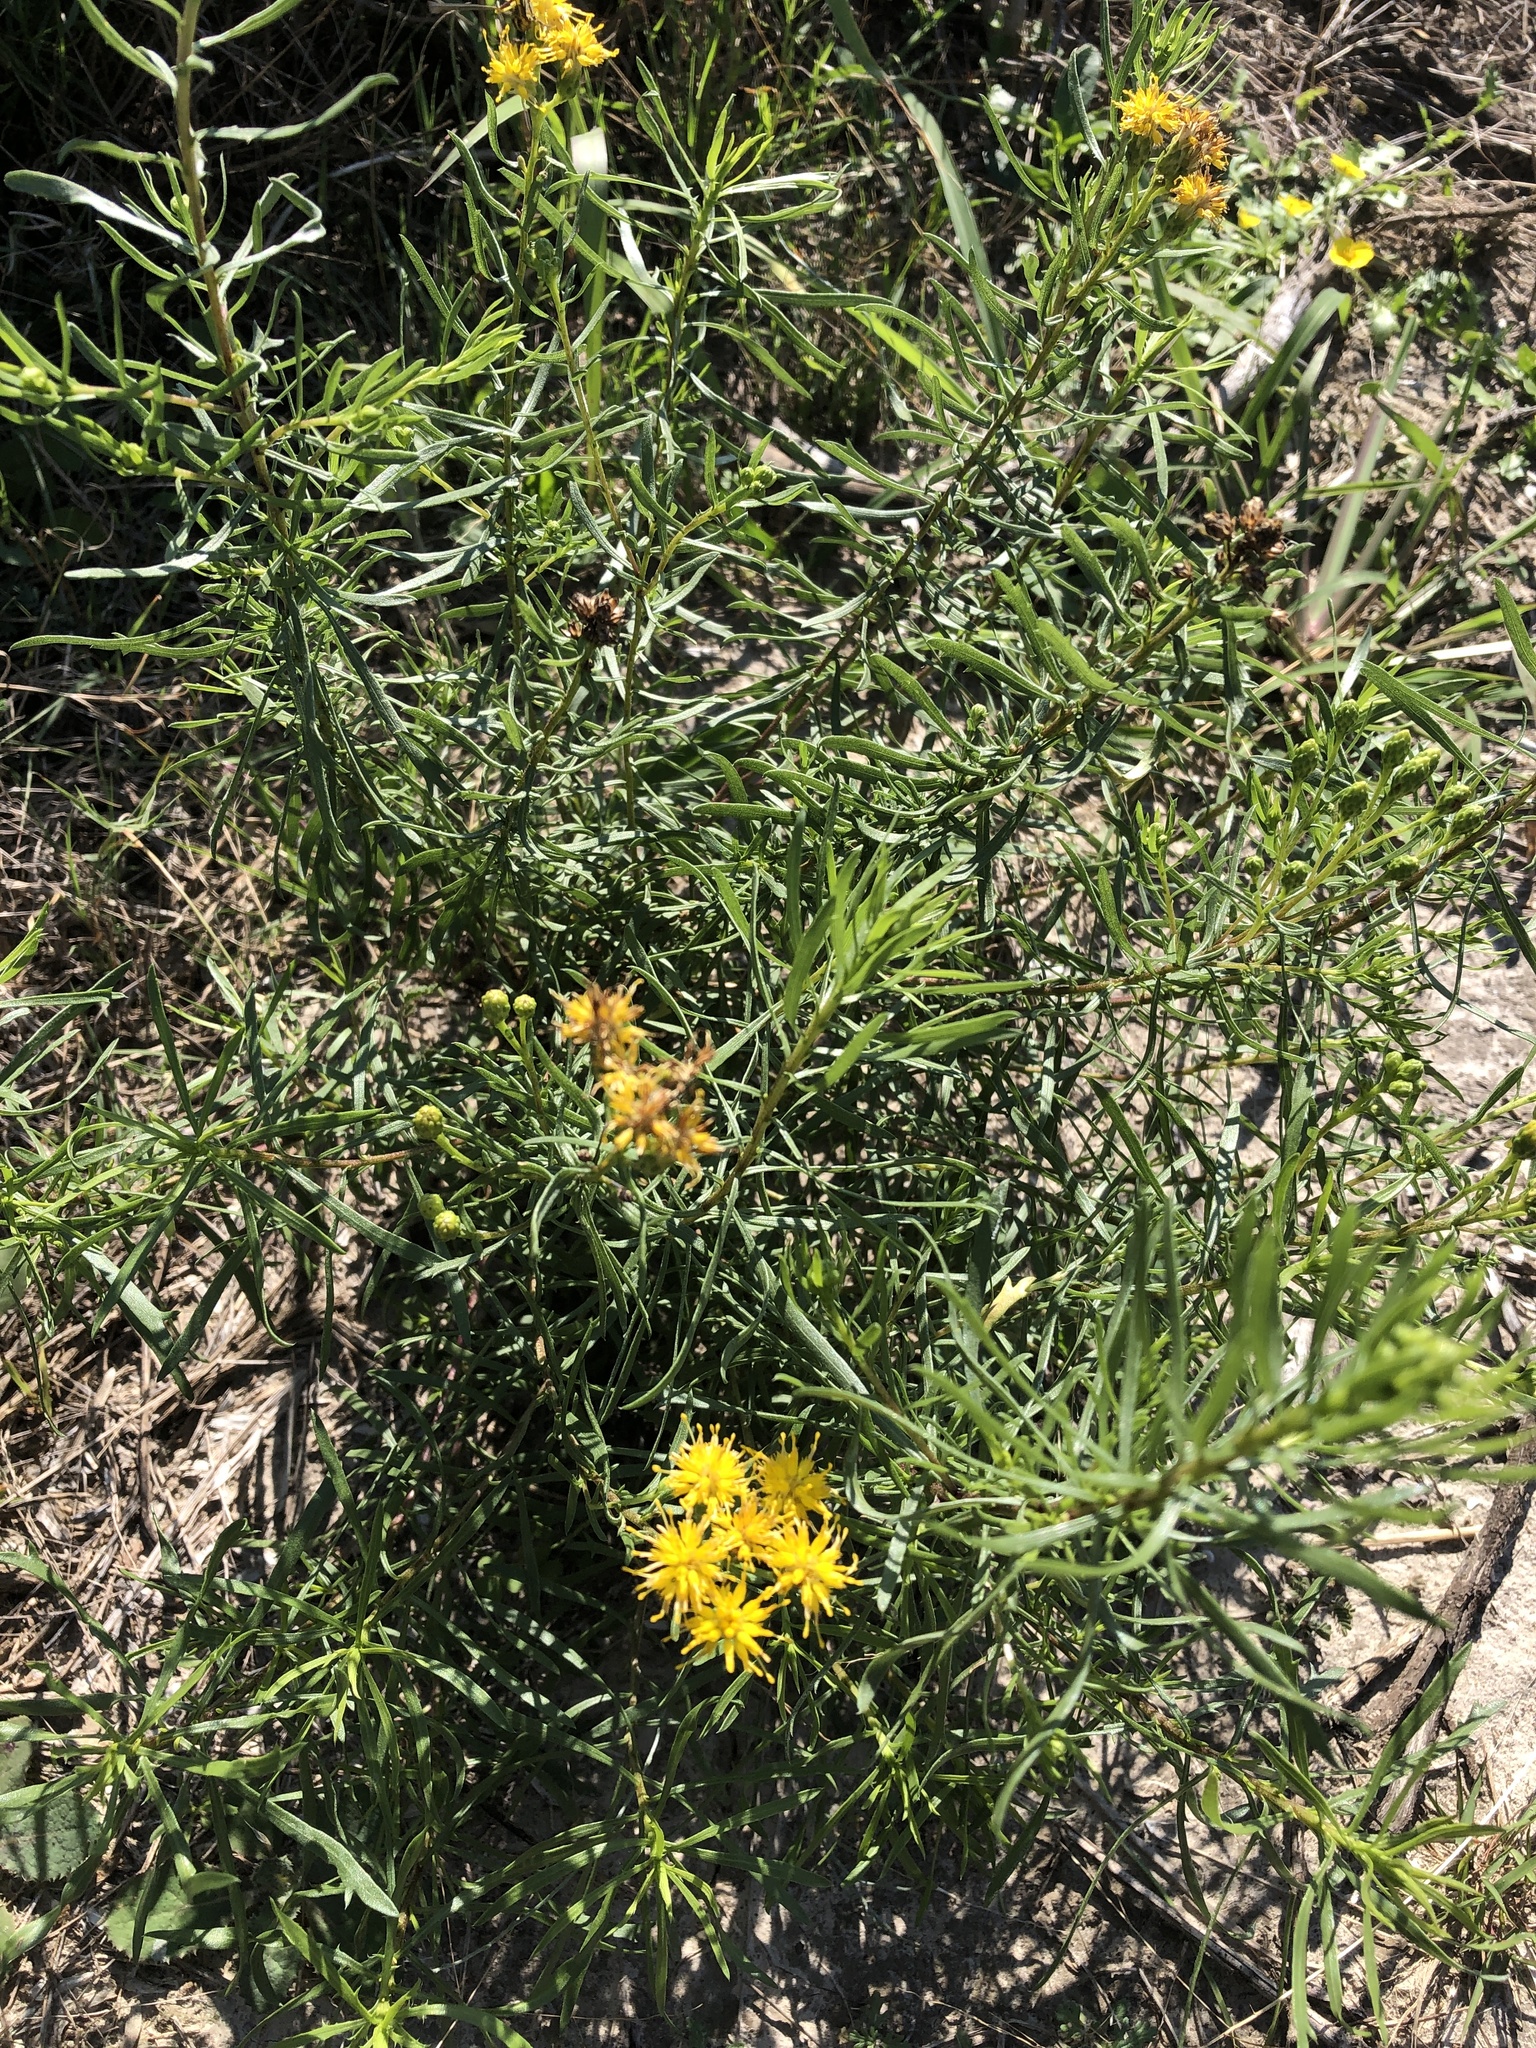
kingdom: Plantae
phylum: Tracheophyta
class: Magnoliopsida
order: Asterales
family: Asteraceae
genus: Isocoma
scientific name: Isocoma drummondii
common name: Drummond's jimmyweed
